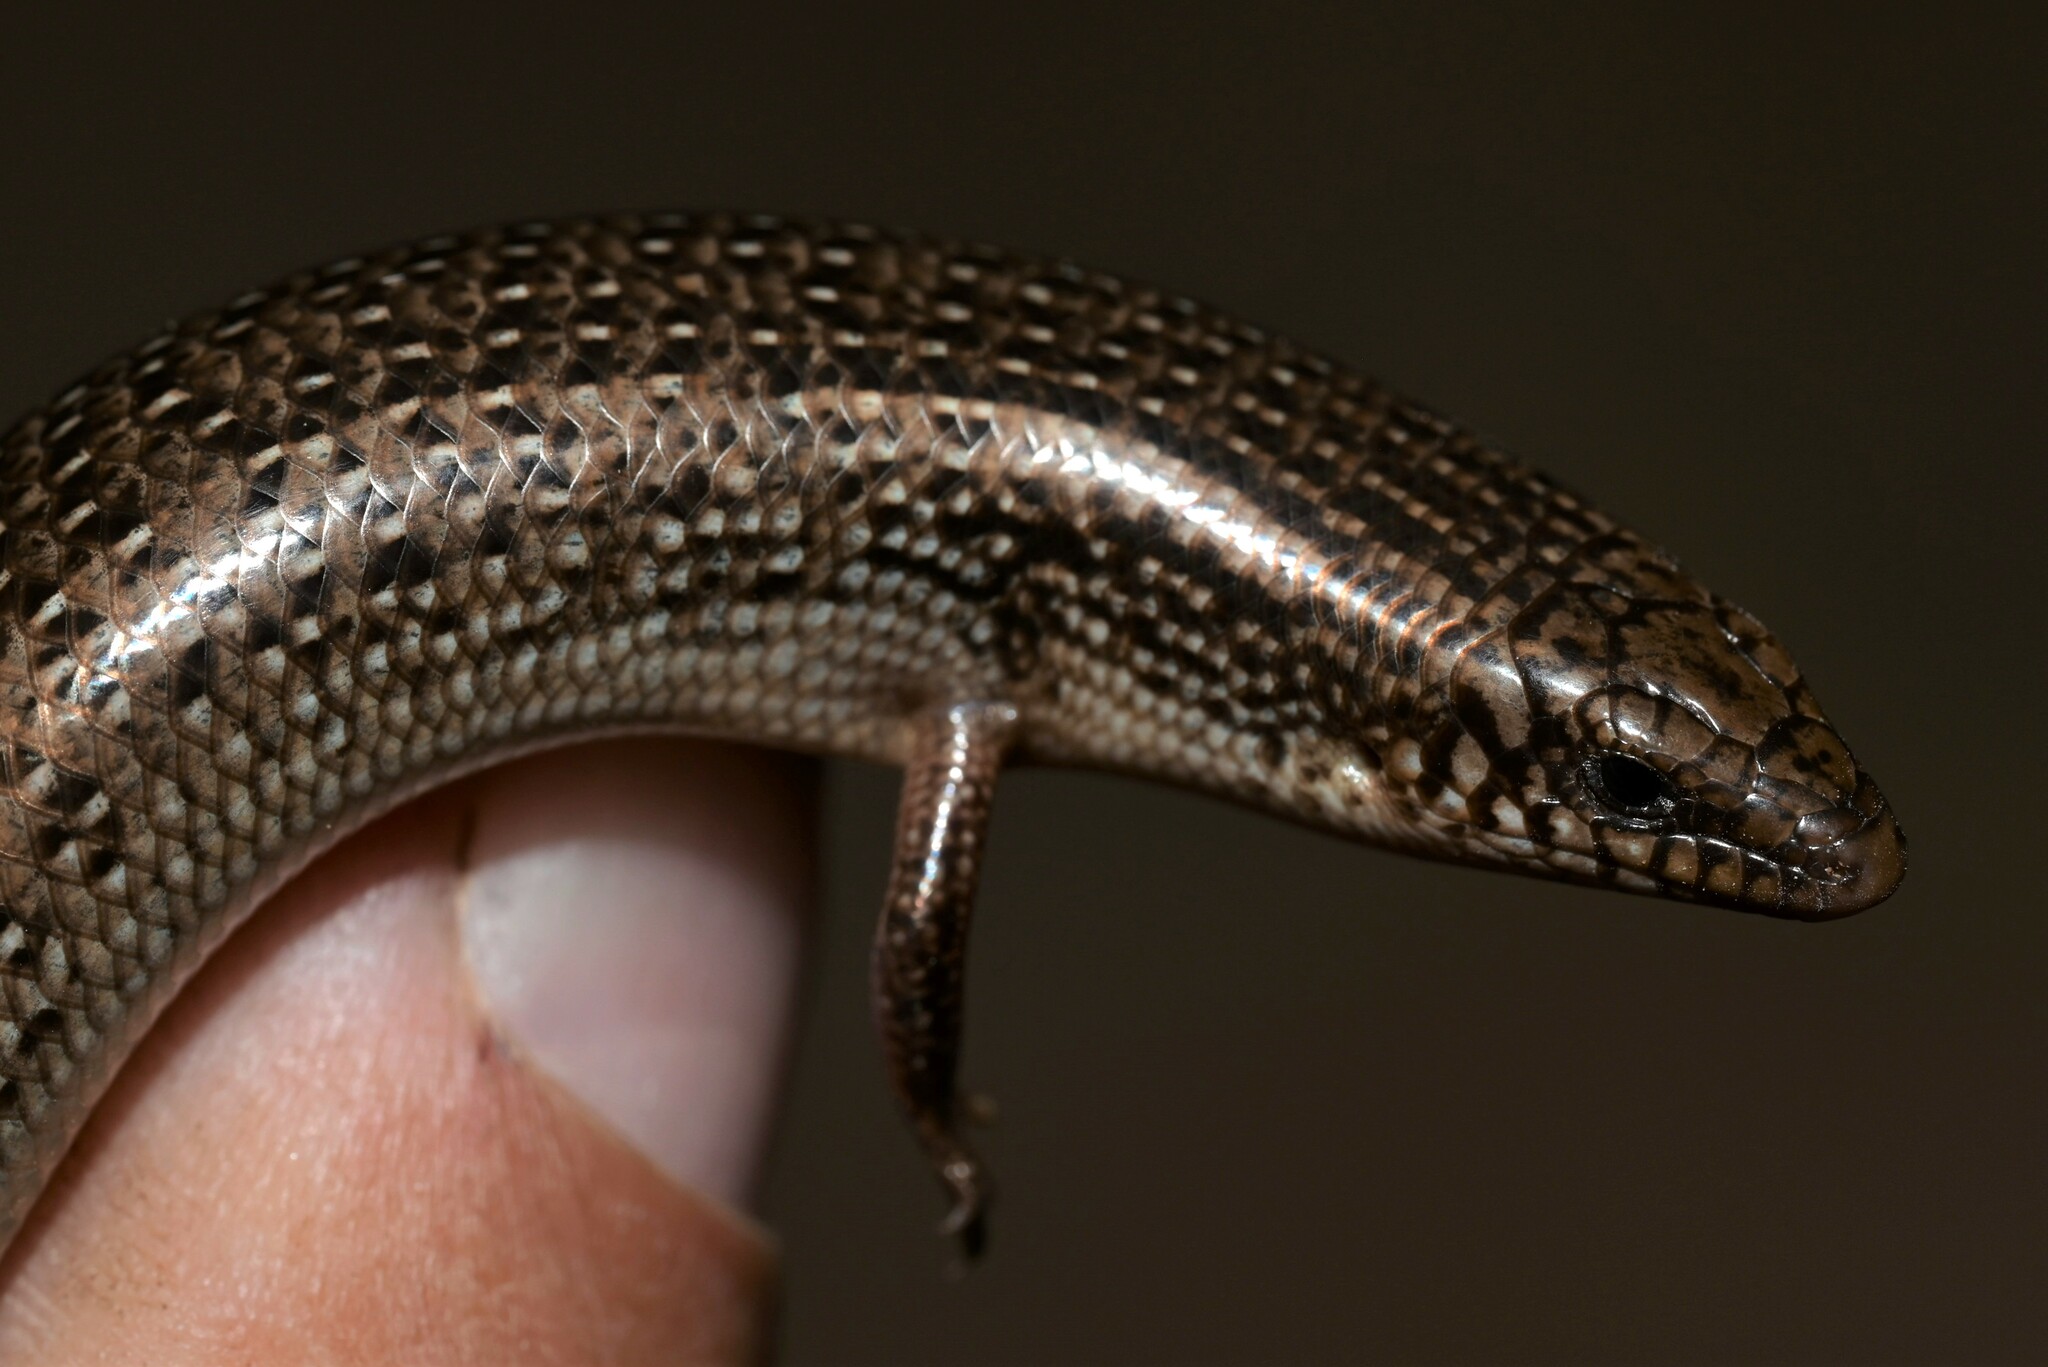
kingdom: Animalia
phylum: Chordata
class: Squamata
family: Scincidae
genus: Chalcides
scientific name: Chalcides ocellatus
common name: Ocellated skink
